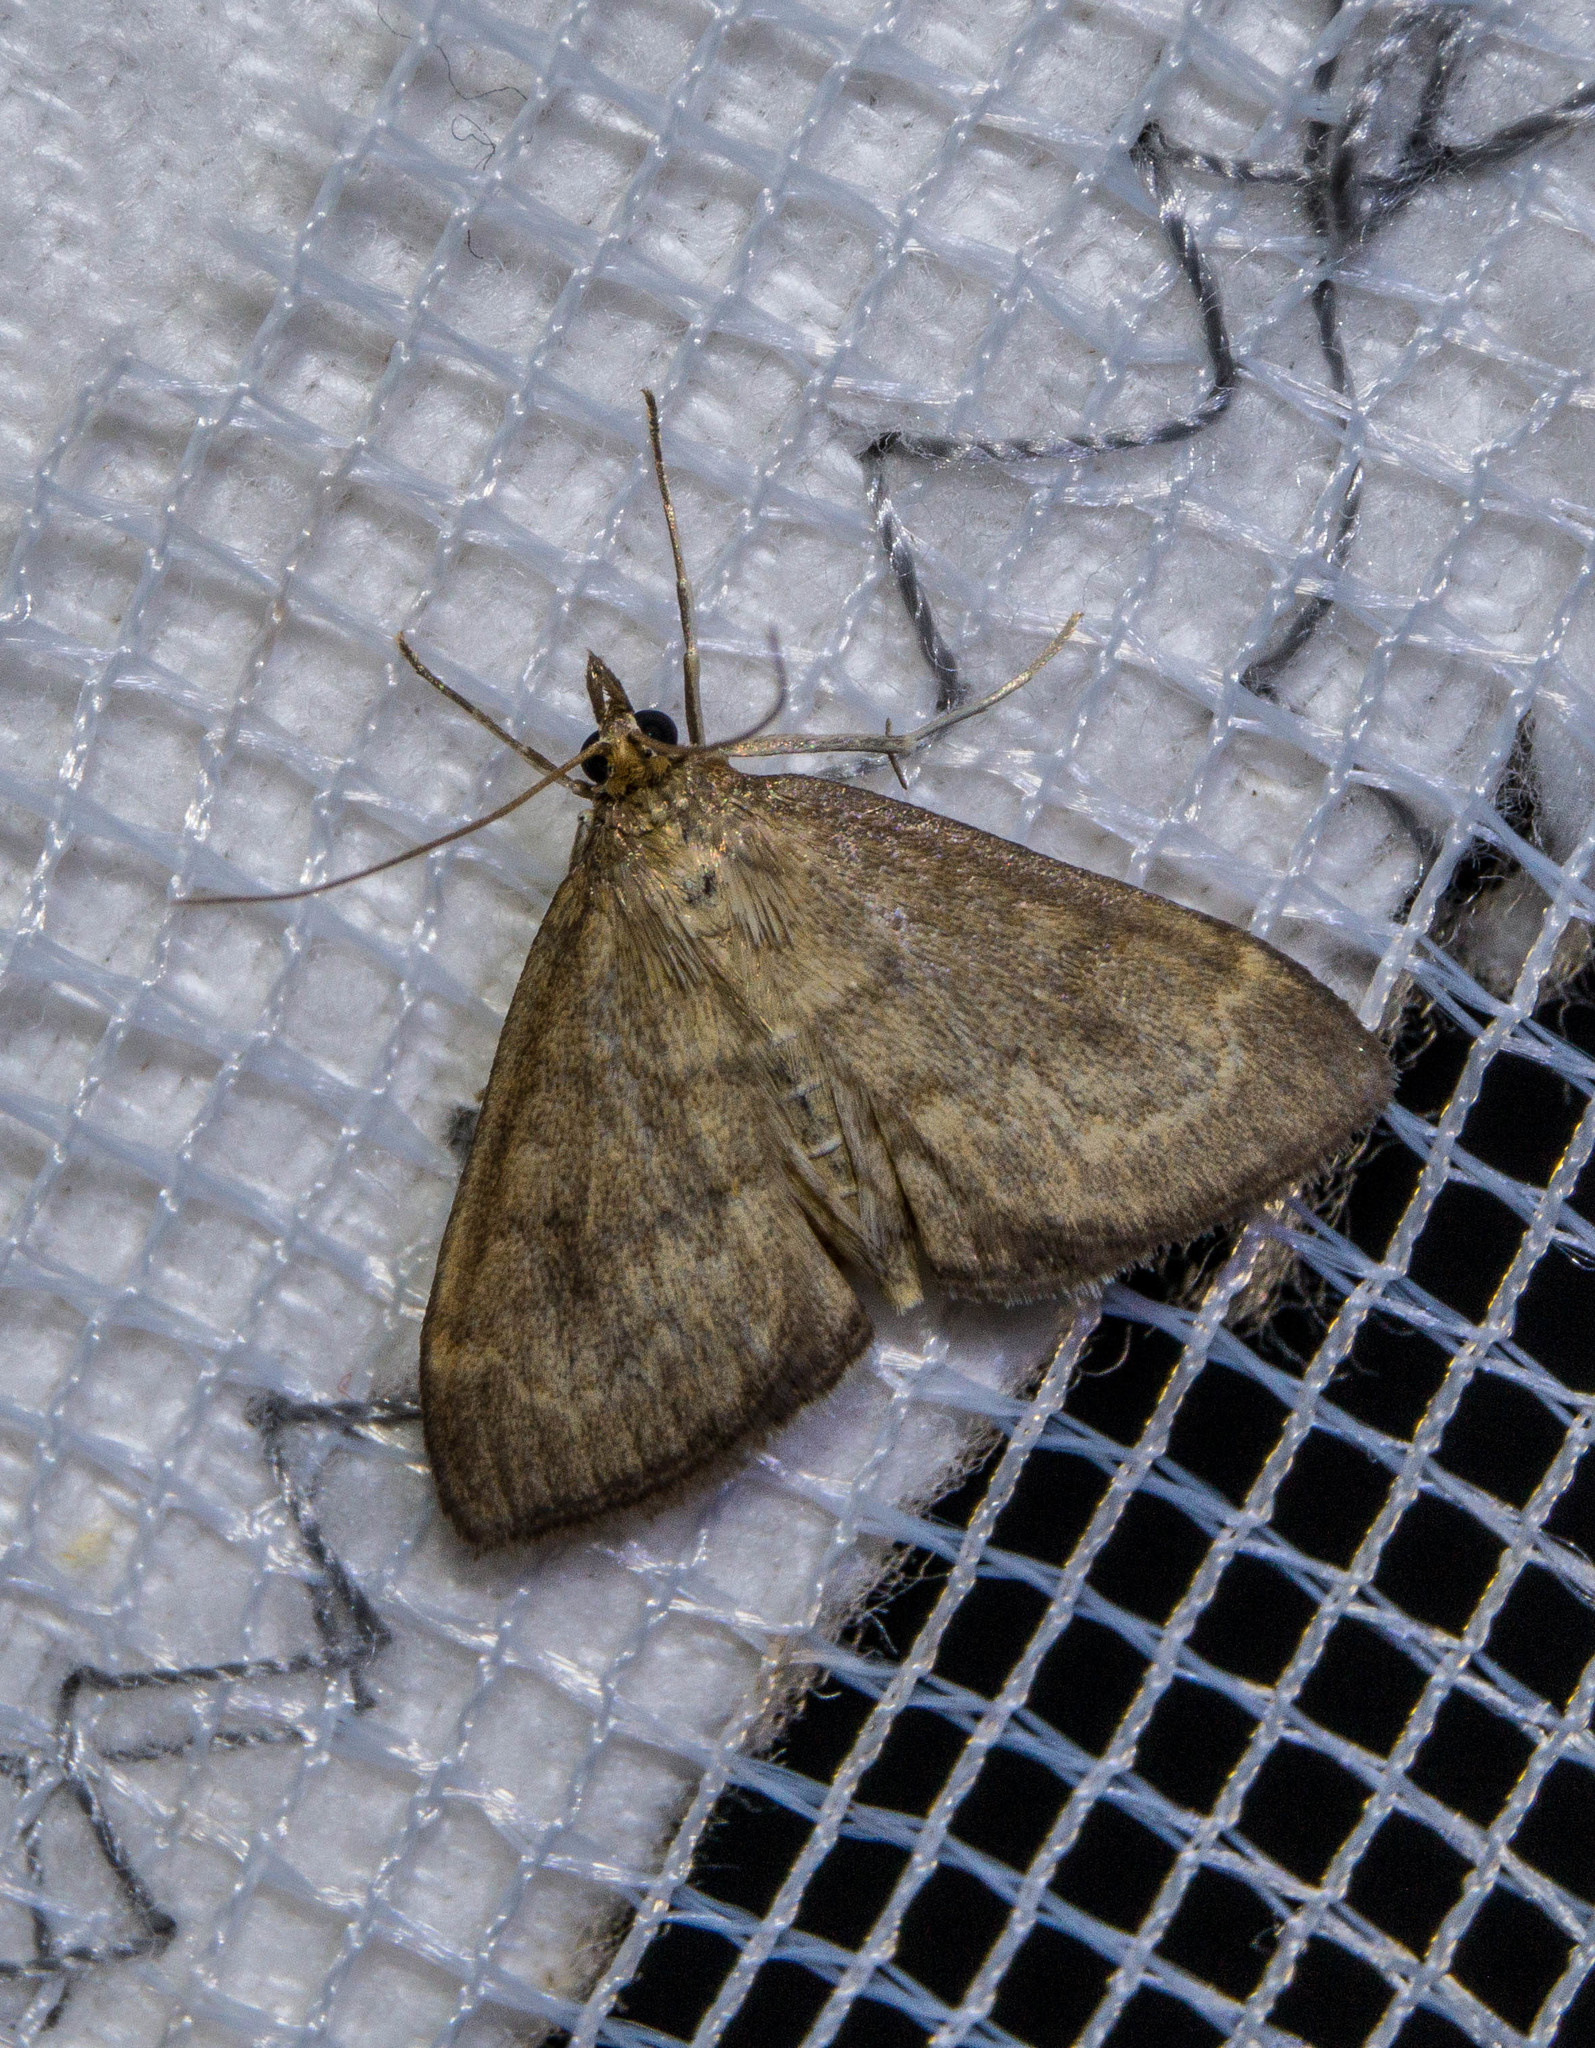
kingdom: Animalia
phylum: Arthropoda
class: Insecta
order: Lepidoptera
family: Crambidae
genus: Anania
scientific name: Anania fuscalis
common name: Cinerous pearl
